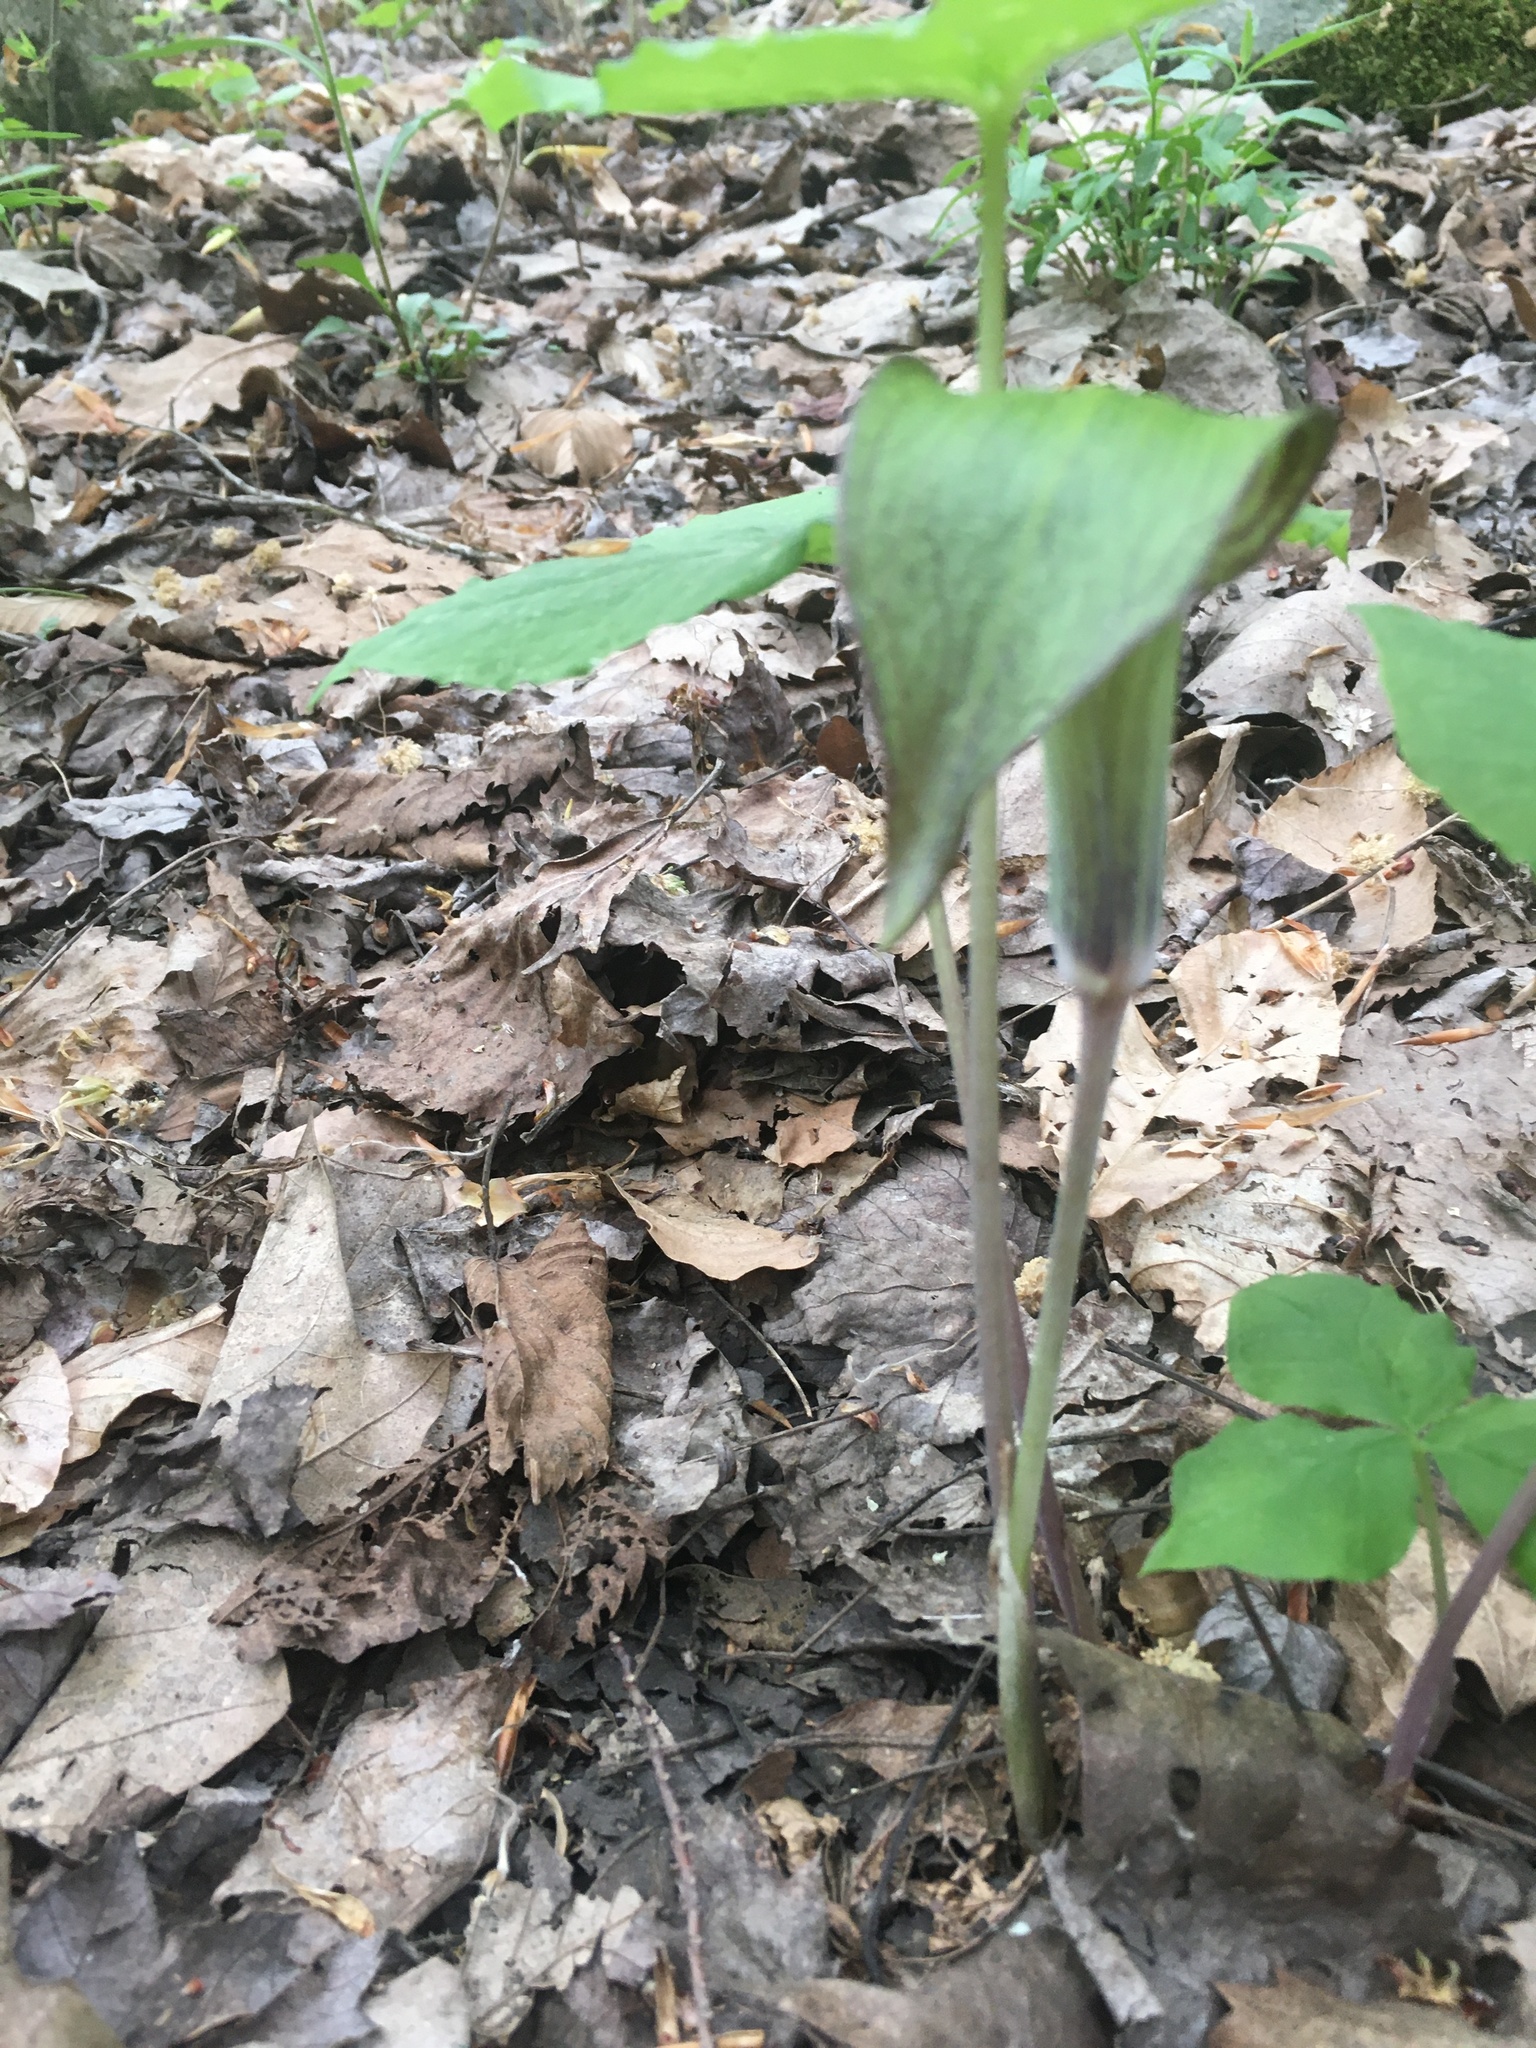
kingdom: Plantae
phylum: Tracheophyta
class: Liliopsida
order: Alismatales
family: Araceae
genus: Arisaema
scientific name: Arisaema triphyllum
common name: Jack-in-the-pulpit
